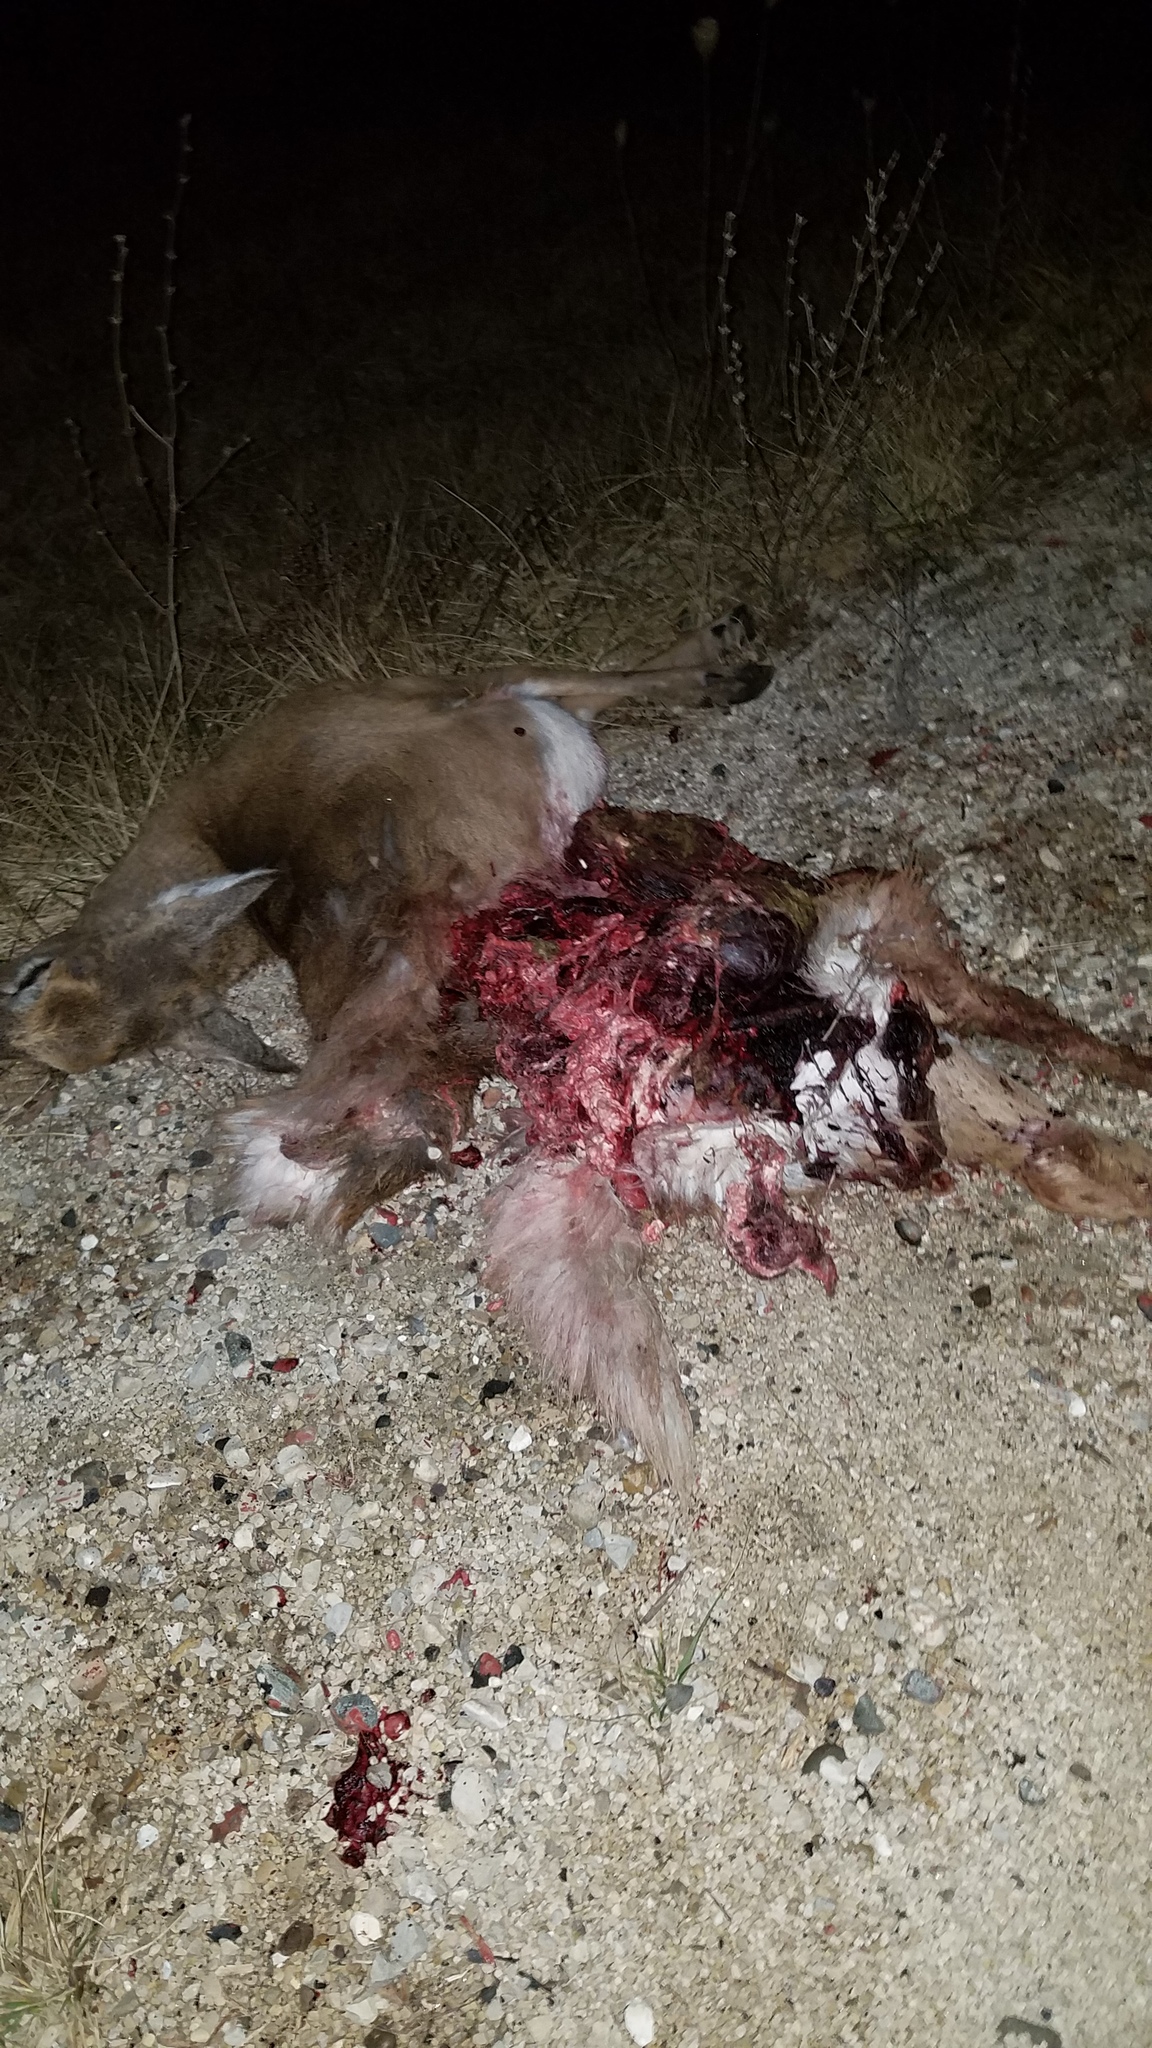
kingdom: Animalia
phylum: Chordata
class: Mammalia
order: Artiodactyla
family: Cervidae
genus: Odocoileus
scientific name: Odocoileus virginianus
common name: White-tailed deer
